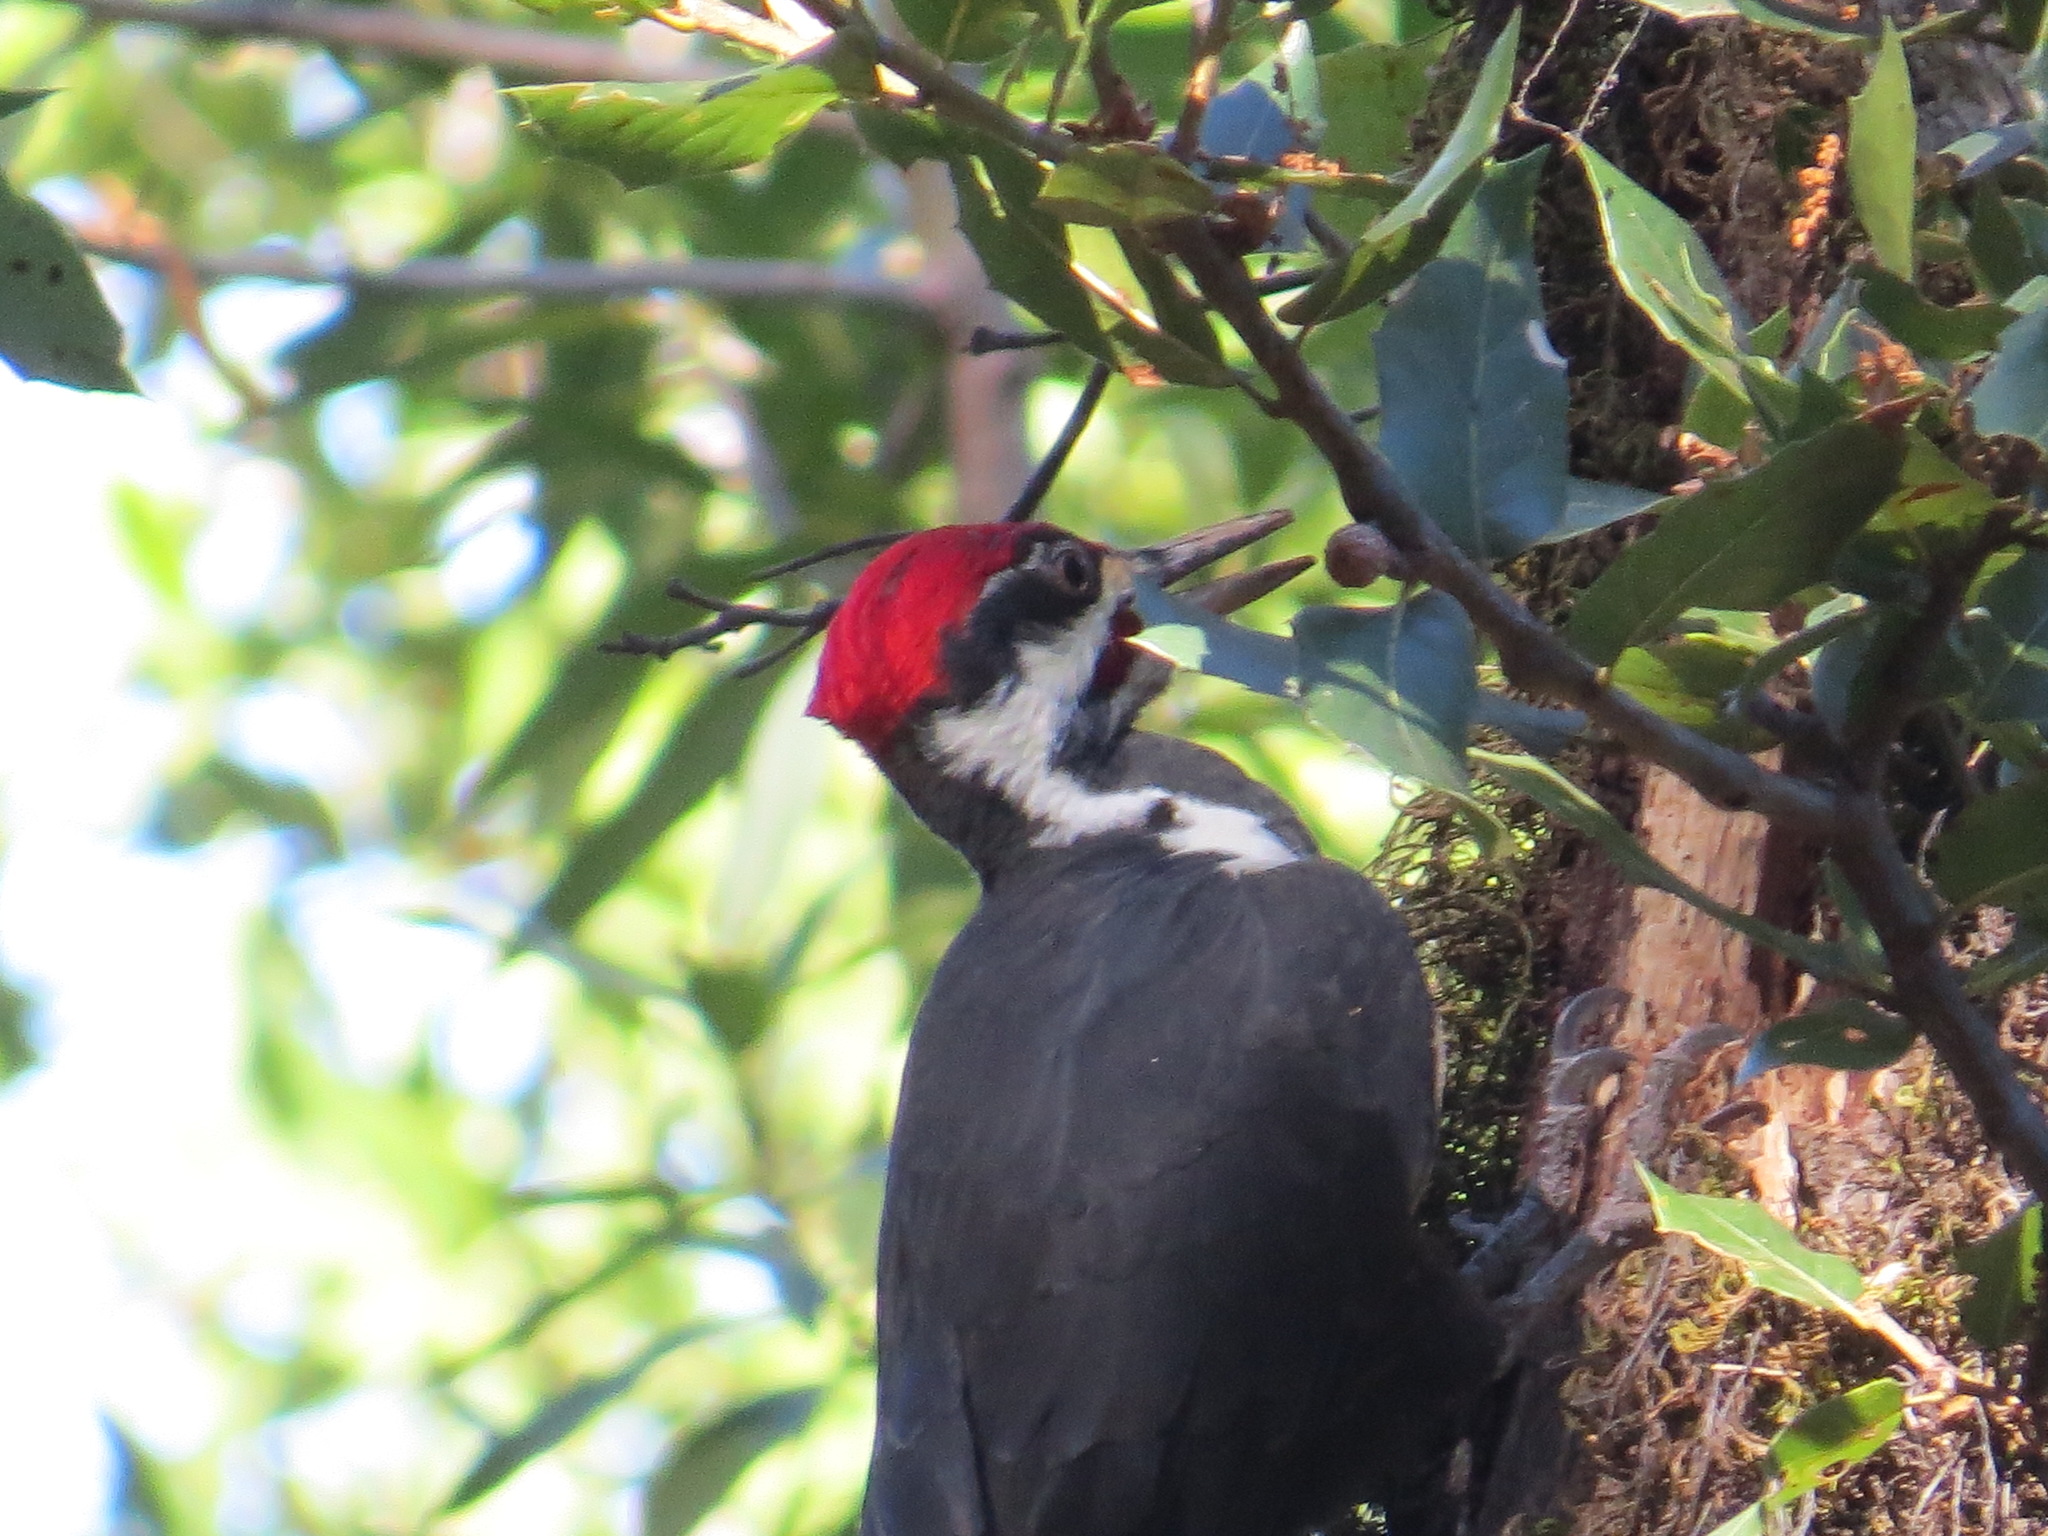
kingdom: Animalia
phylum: Chordata
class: Aves
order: Piciformes
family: Picidae
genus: Dryocopus
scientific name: Dryocopus pileatus
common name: Pileated woodpecker
